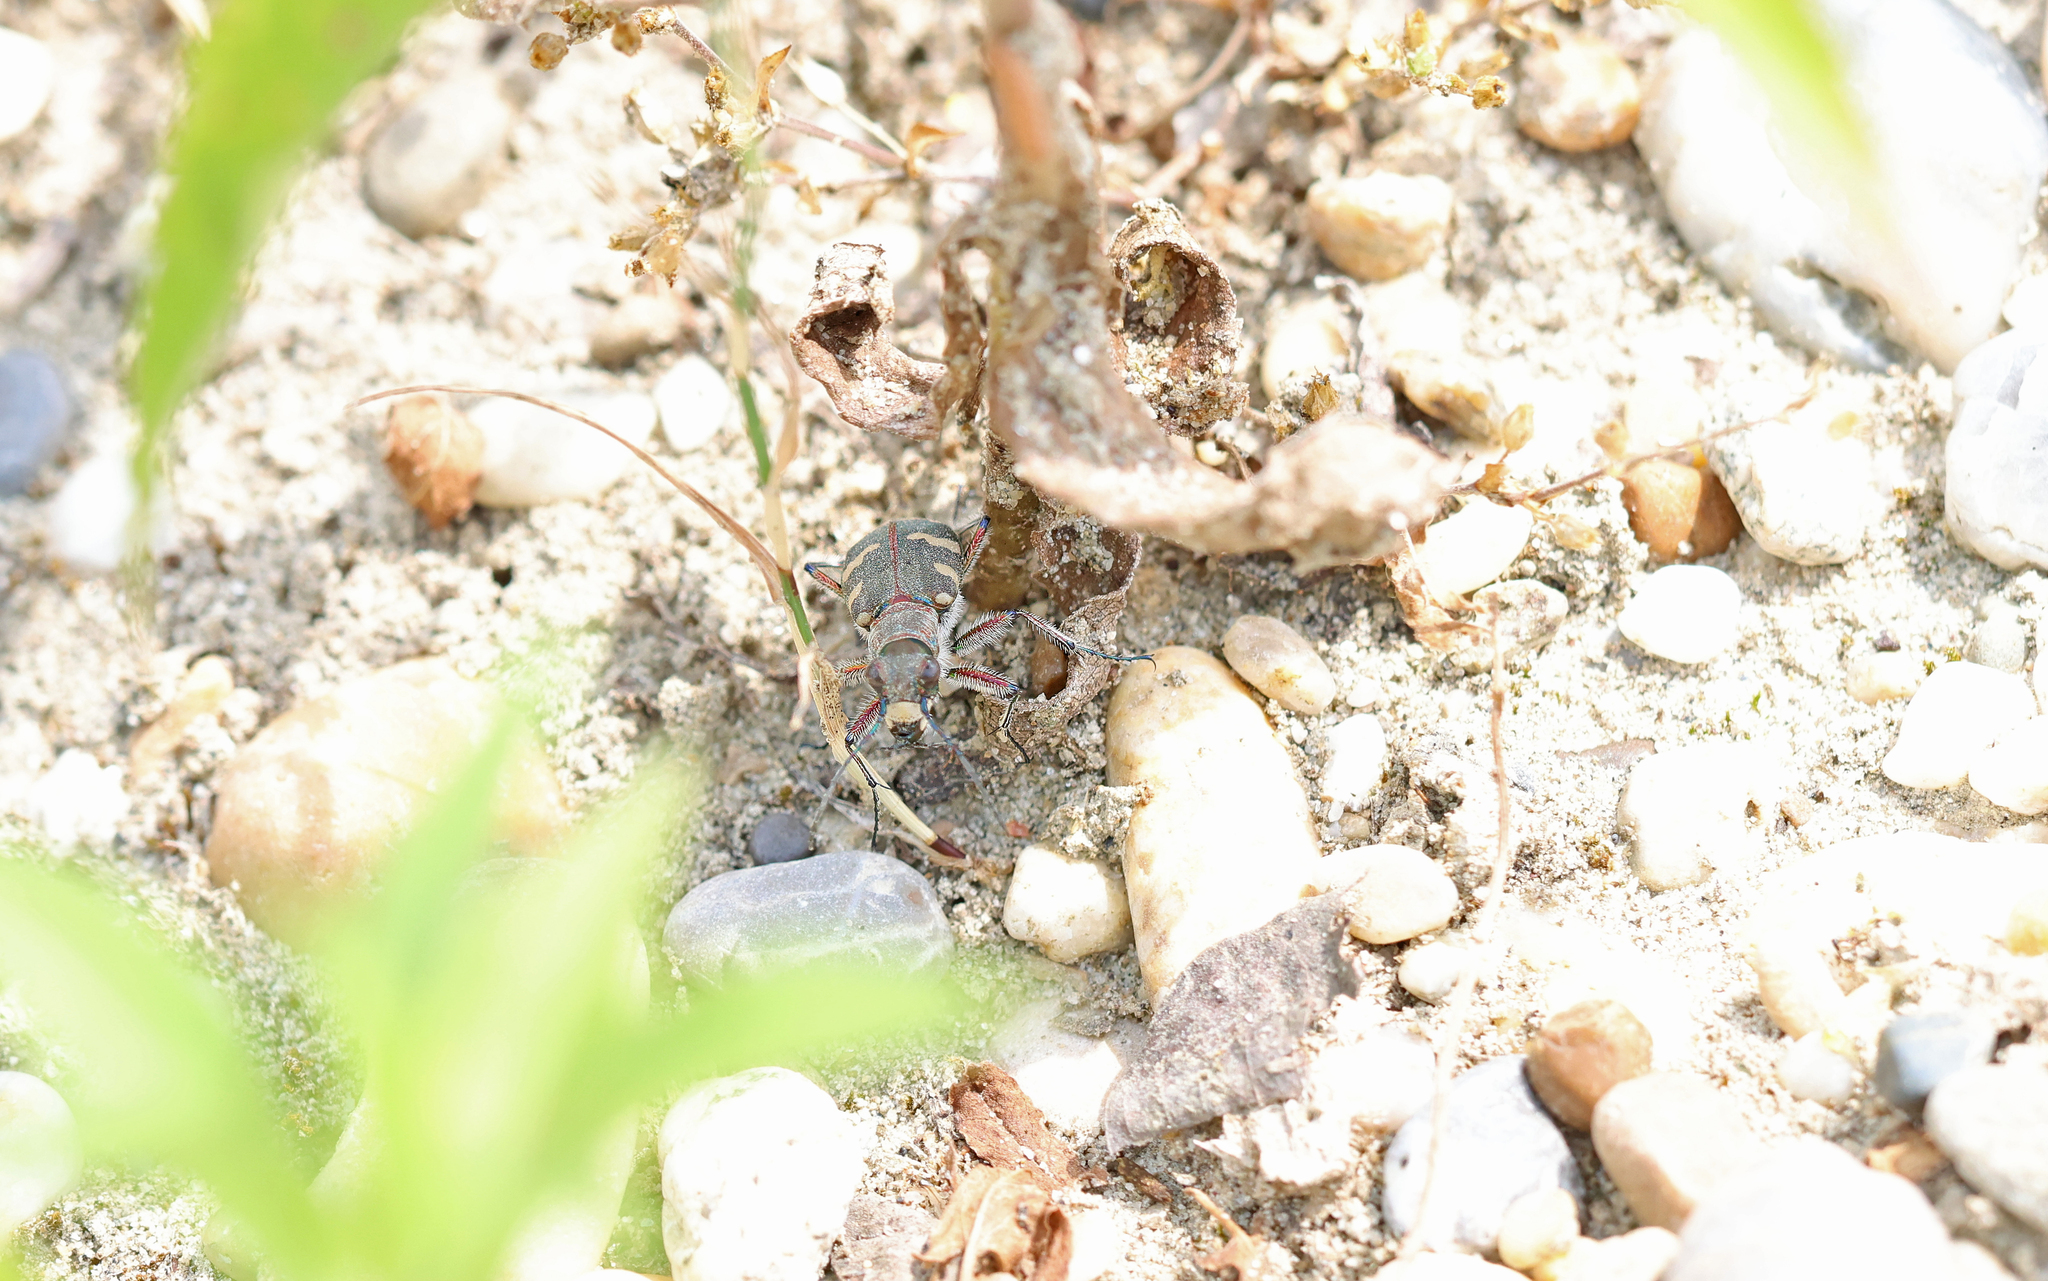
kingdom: Animalia
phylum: Arthropoda
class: Insecta
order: Coleoptera
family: Carabidae
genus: Cicindela
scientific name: Cicindela hybrida
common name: Northern dune tiger beetle
